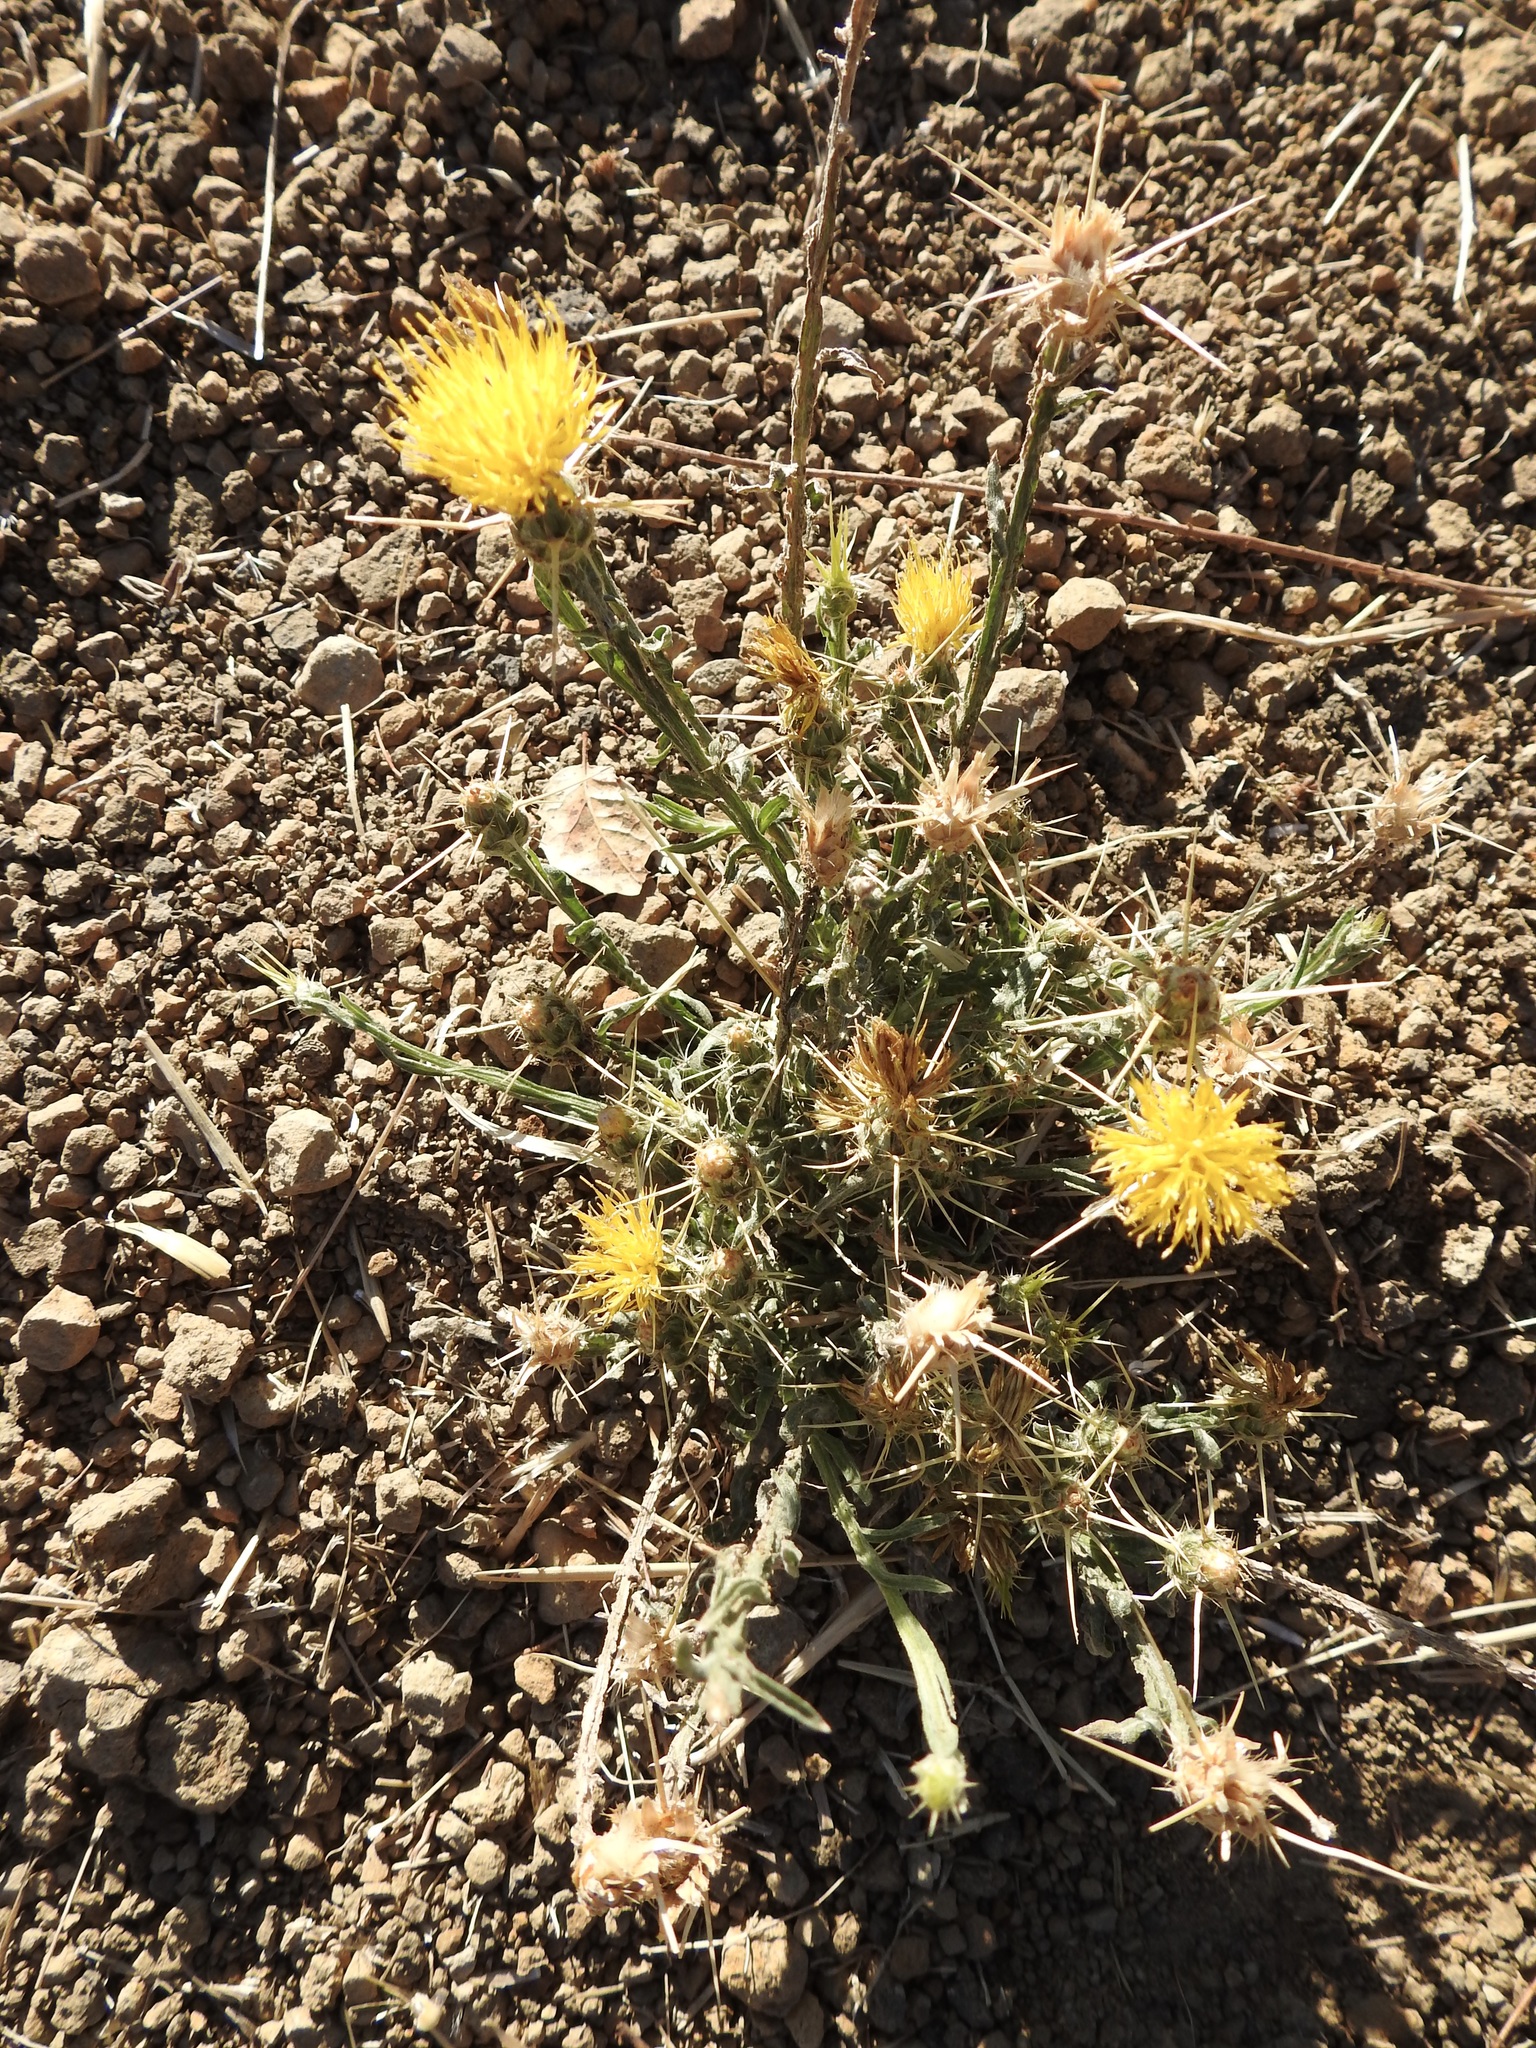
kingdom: Plantae
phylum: Tracheophyta
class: Magnoliopsida
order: Asterales
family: Asteraceae
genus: Centaurea
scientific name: Centaurea solstitialis
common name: Yellow star-thistle
